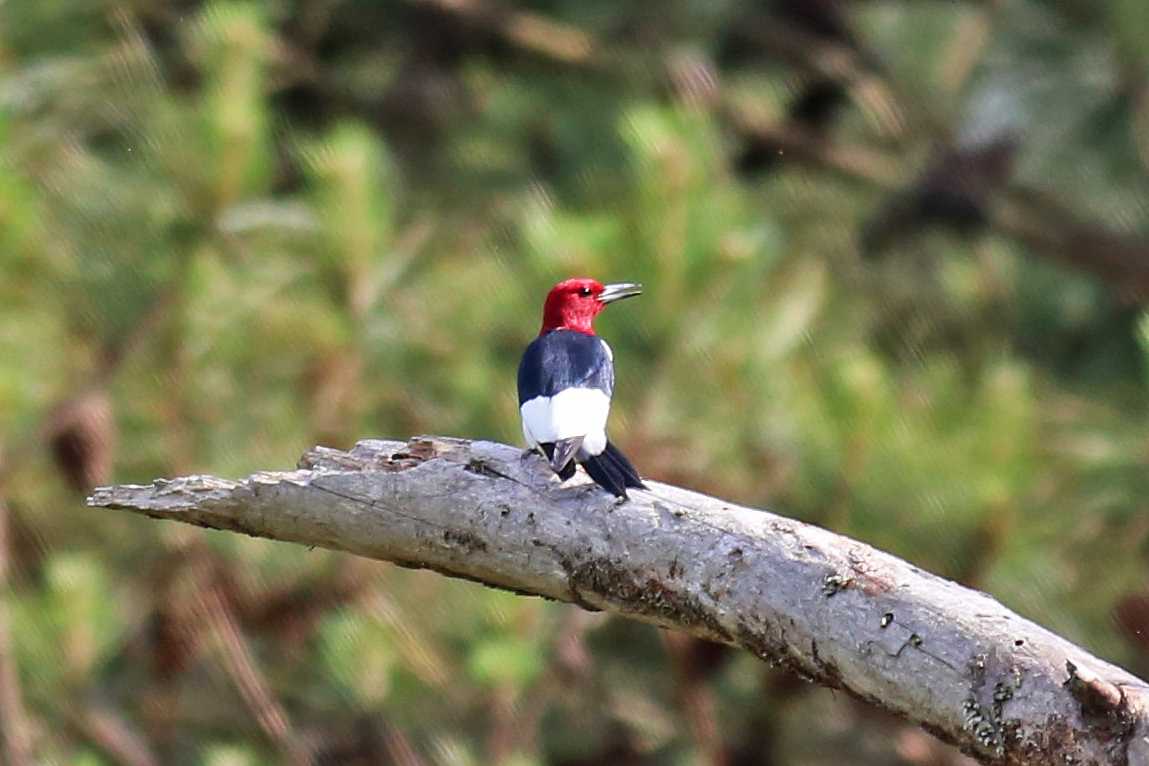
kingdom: Animalia
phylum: Chordata
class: Aves
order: Piciformes
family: Picidae
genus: Melanerpes
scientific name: Melanerpes erythrocephalus
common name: Red-headed woodpecker
